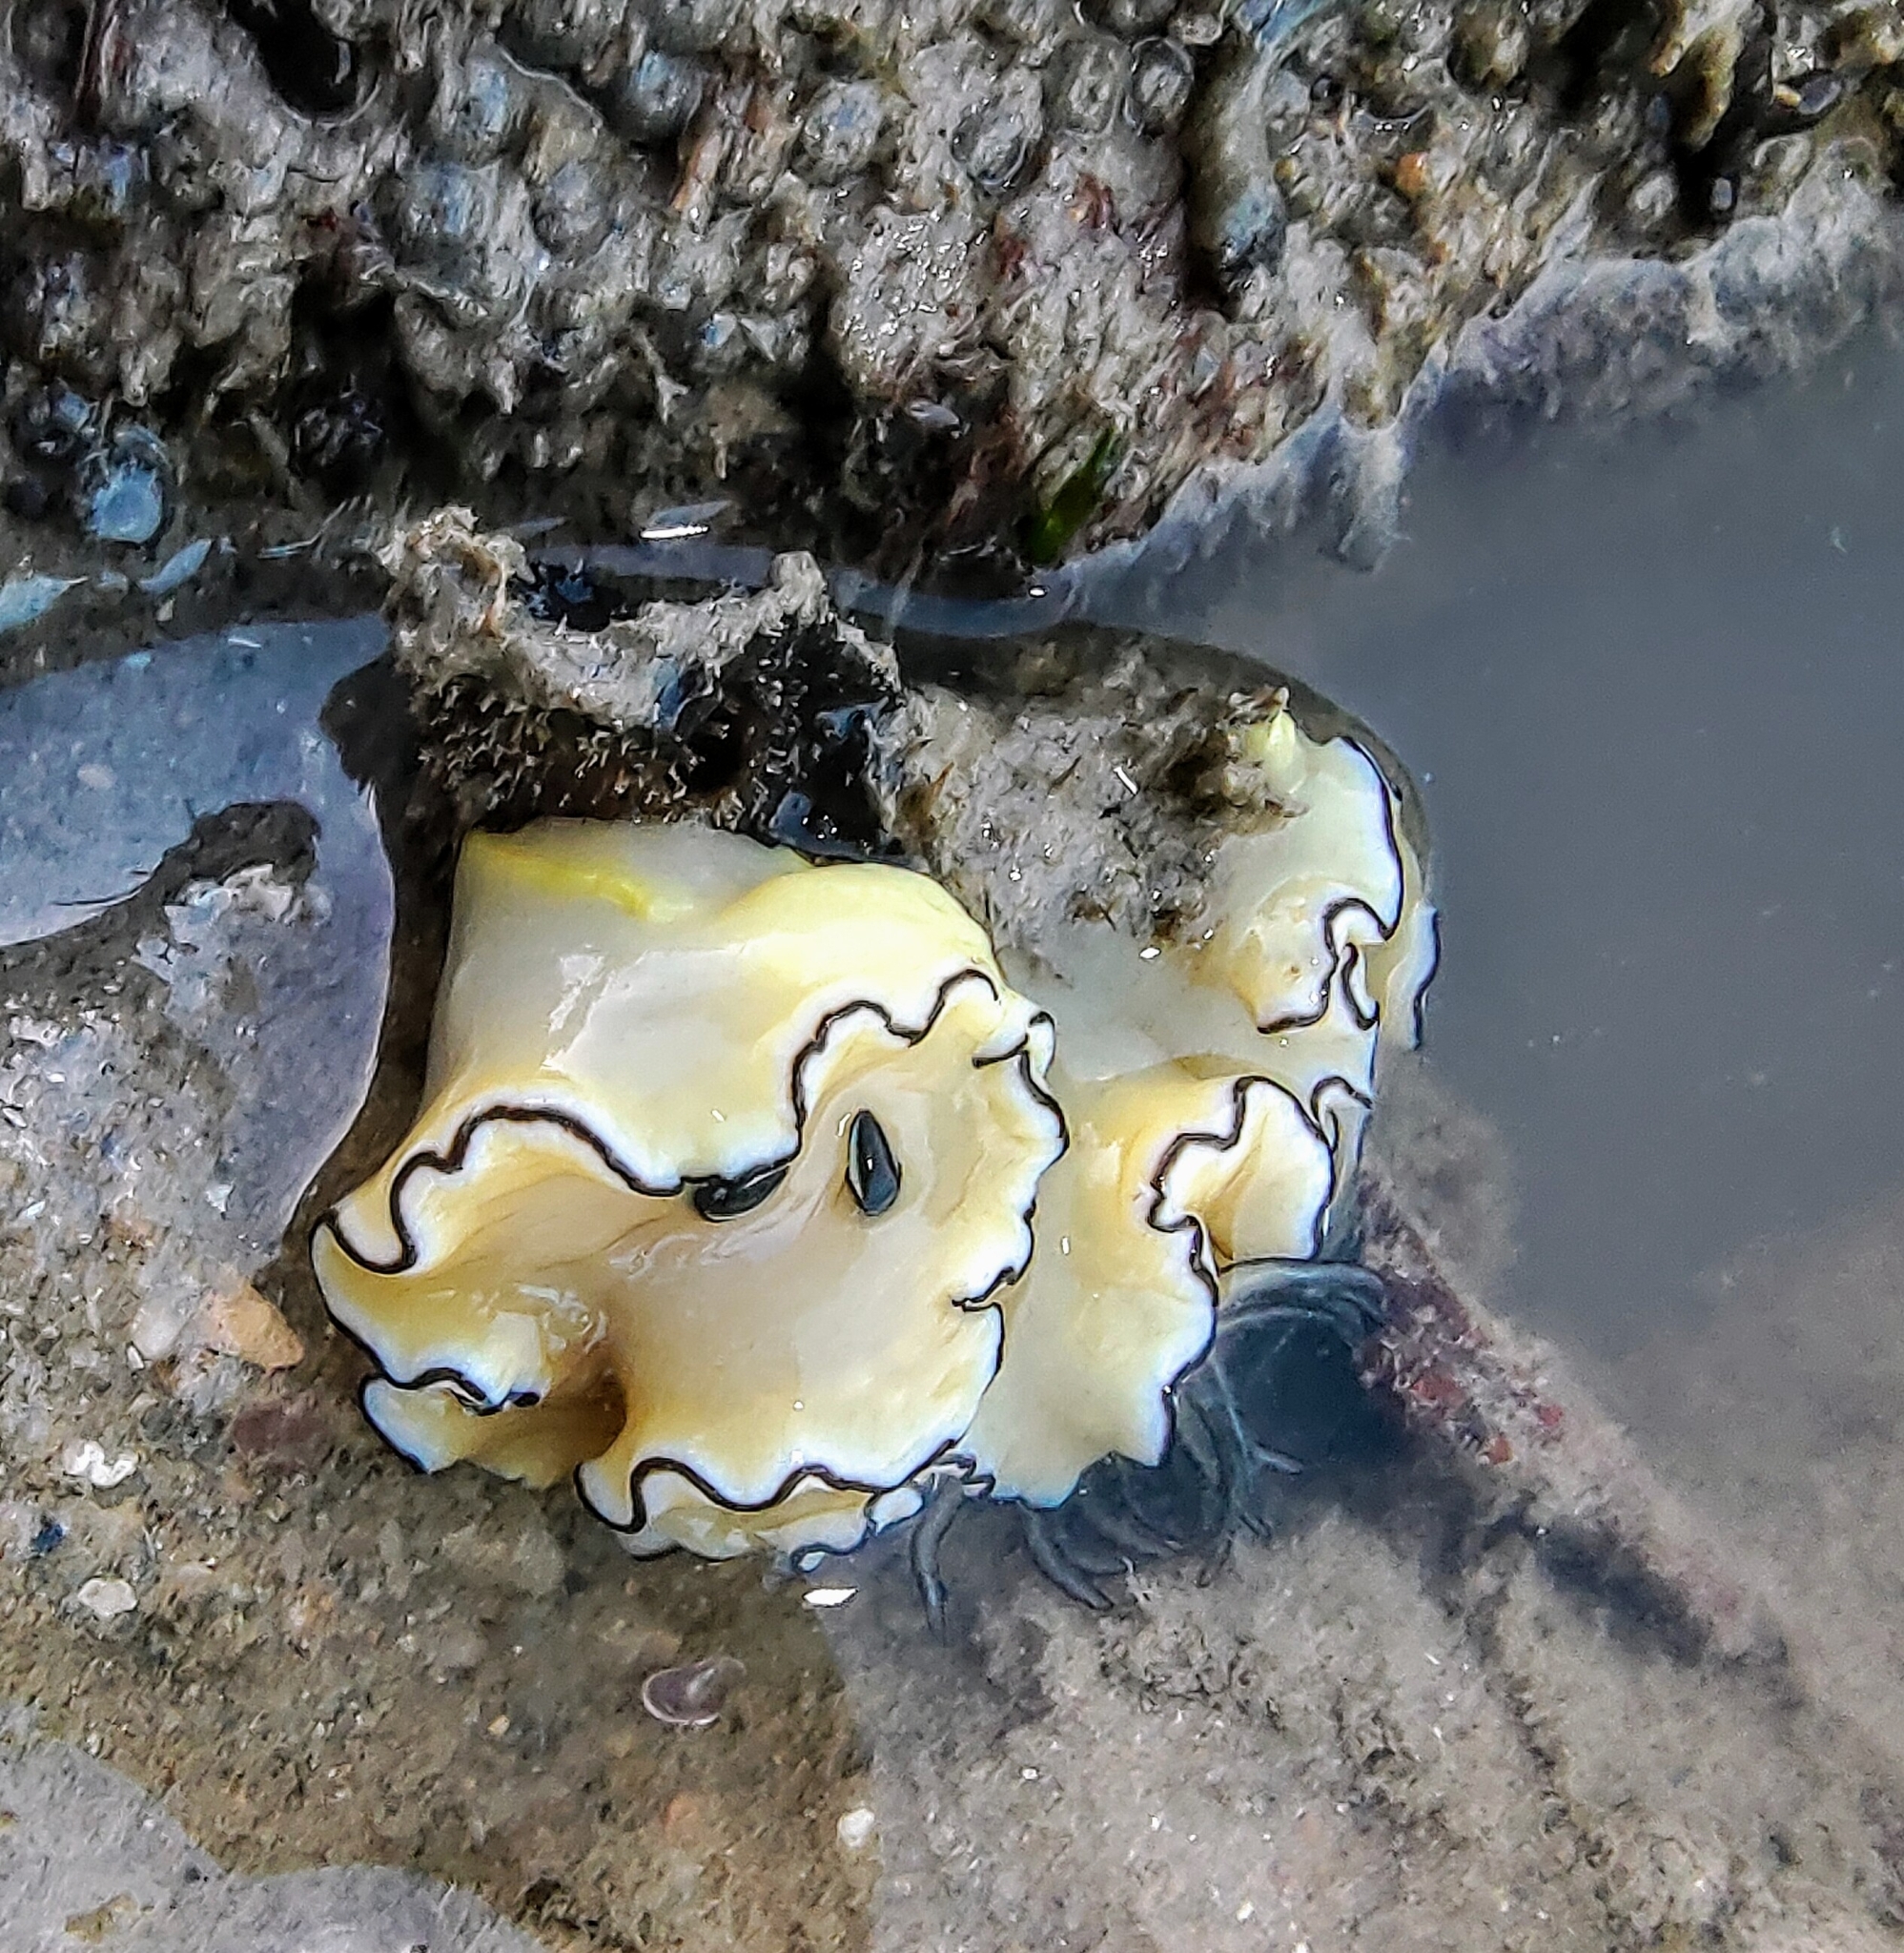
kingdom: Animalia
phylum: Mollusca
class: Gastropoda
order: Nudibranchia
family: Chromodorididae
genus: Doriprismatica
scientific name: Doriprismatica atromarginata
